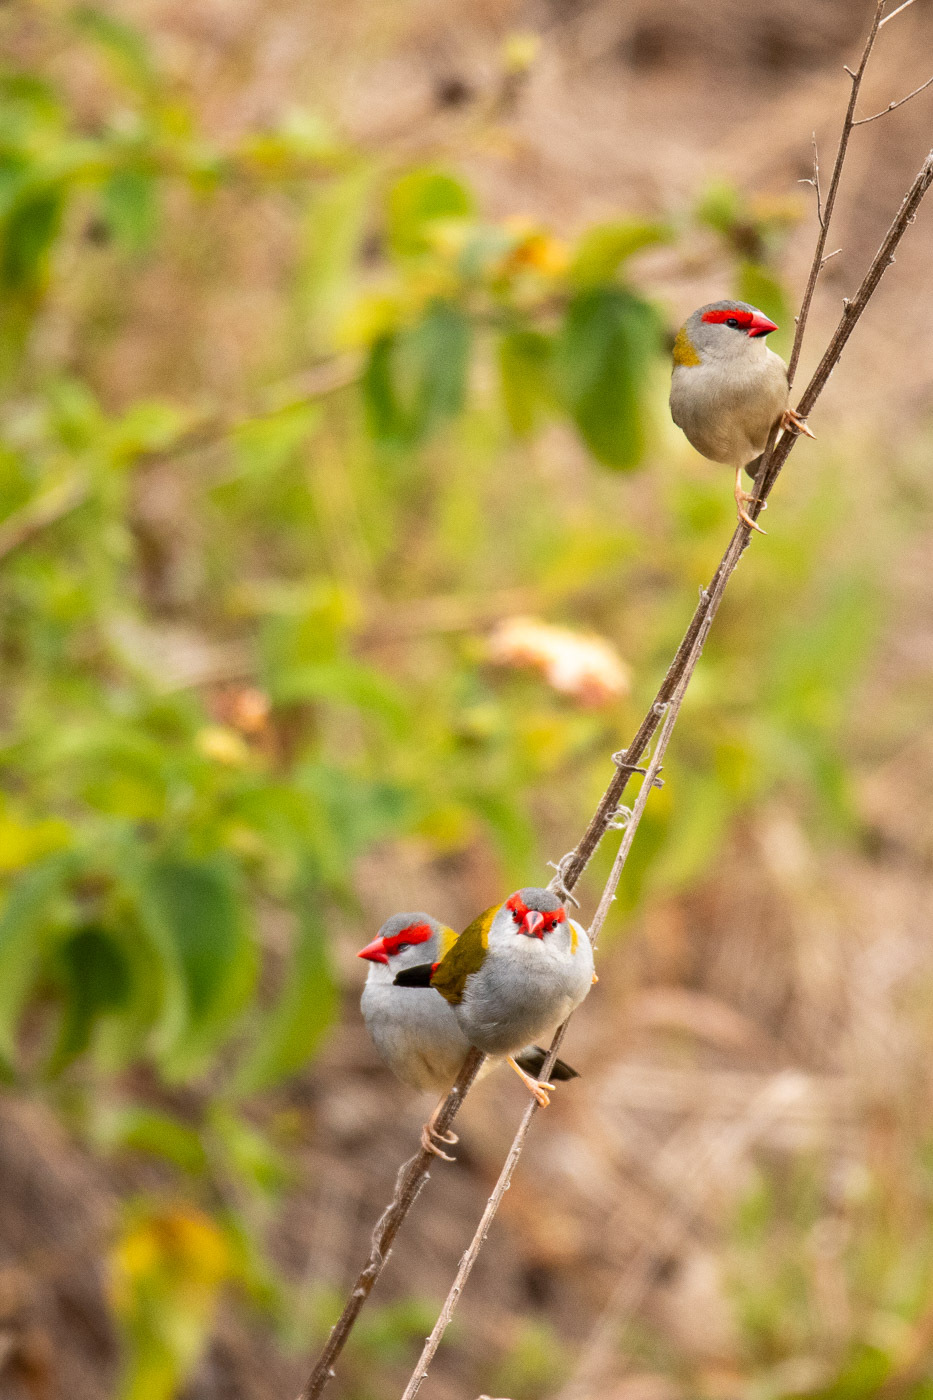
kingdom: Animalia
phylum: Chordata
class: Aves
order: Passeriformes
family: Estrildidae
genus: Neochmia
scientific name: Neochmia temporalis
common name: Red-browed finch
